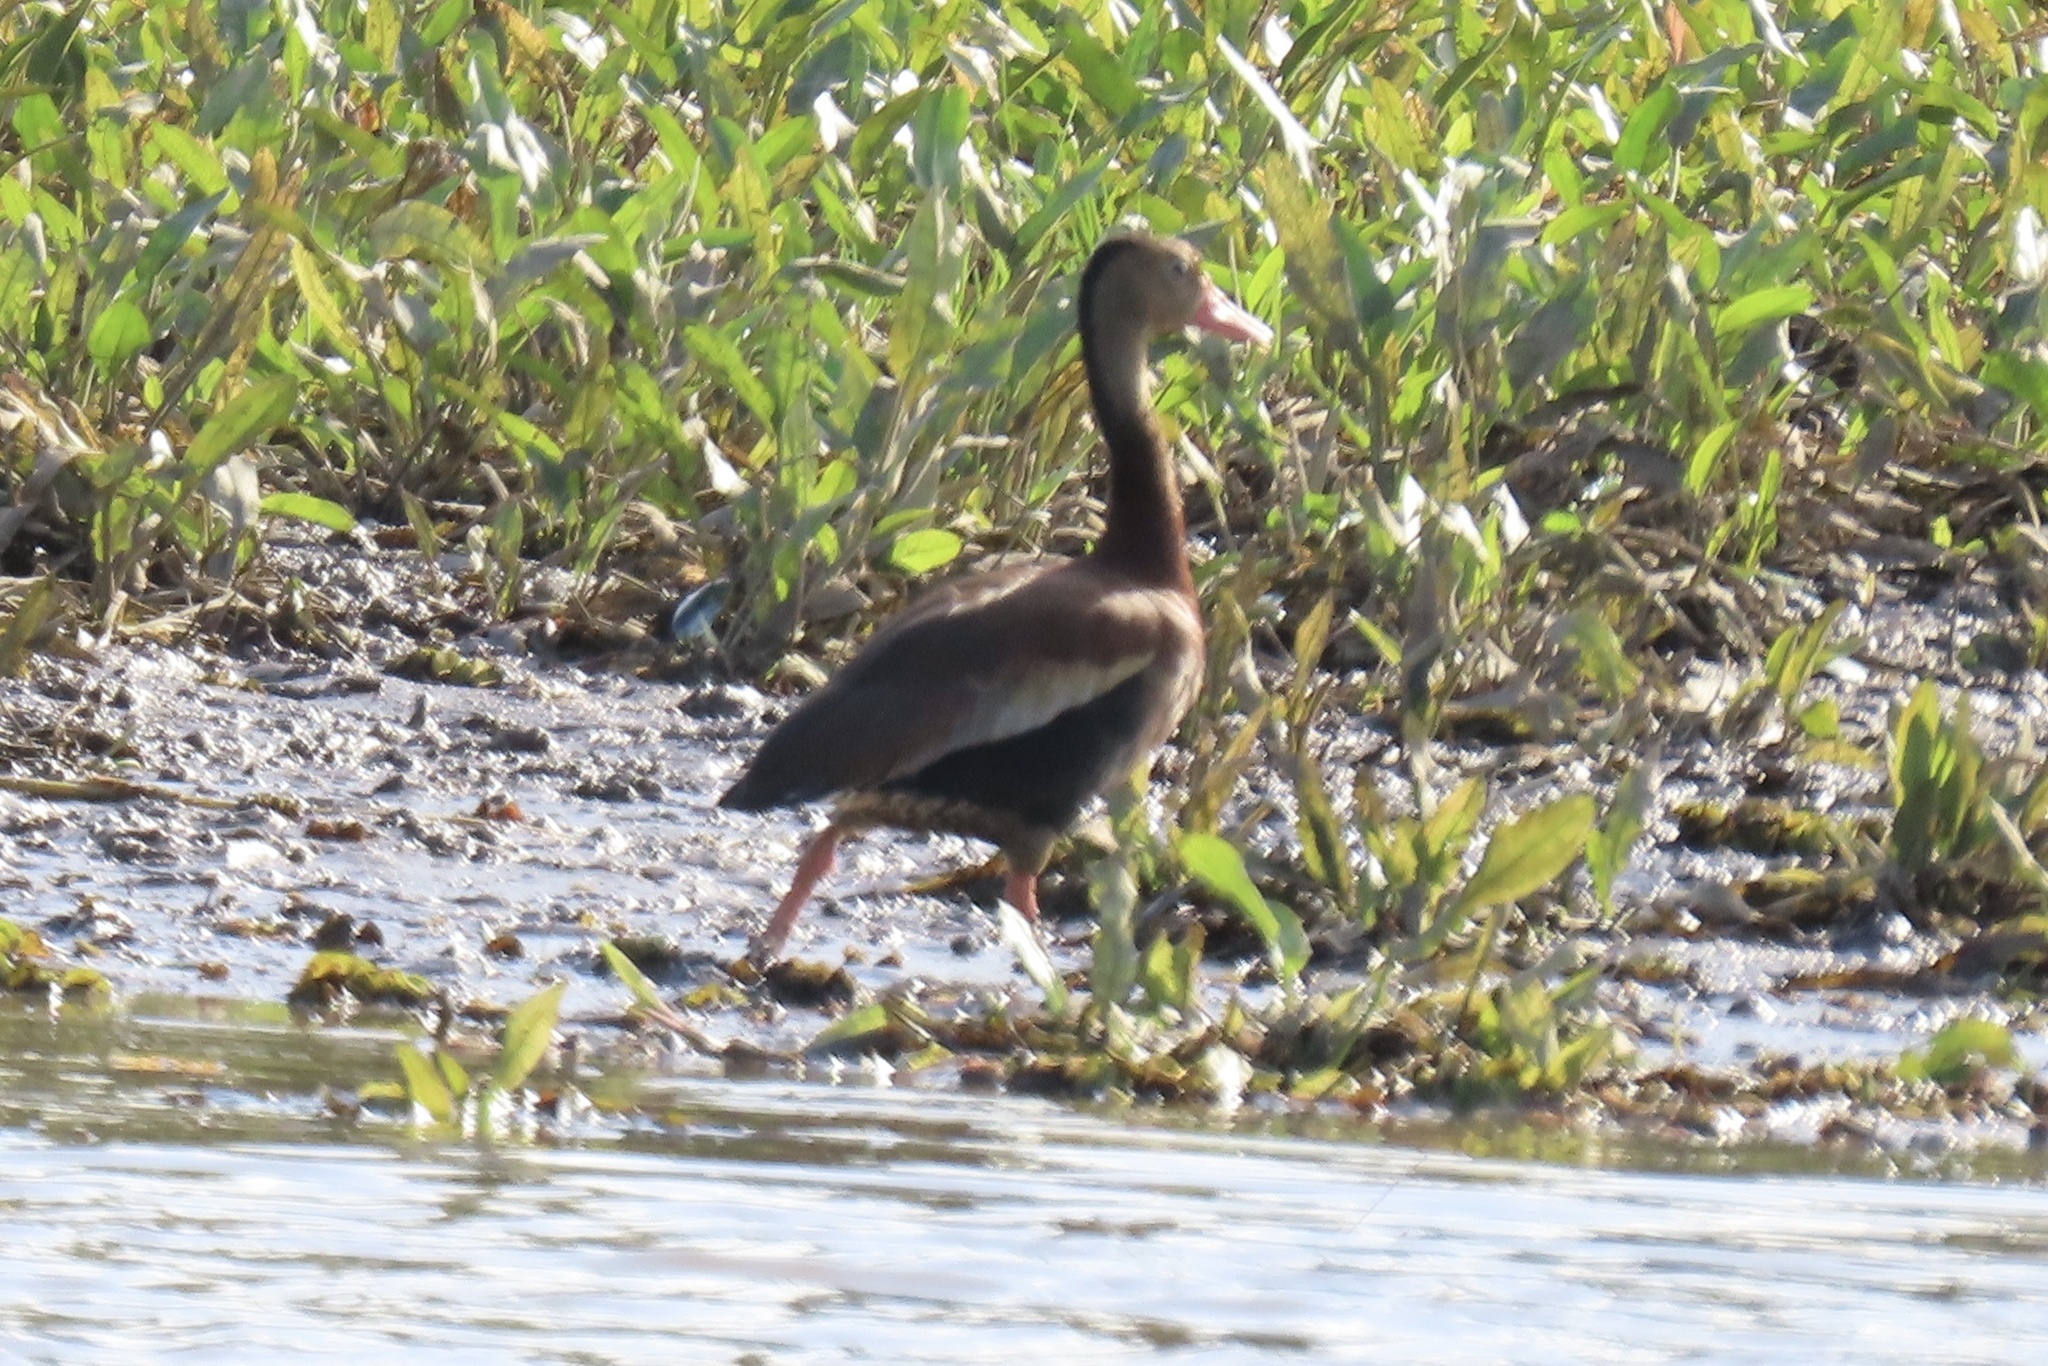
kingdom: Animalia
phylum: Chordata
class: Aves
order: Anseriformes
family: Anatidae
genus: Dendrocygna
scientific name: Dendrocygna autumnalis
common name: Black-bellied whistling duck
